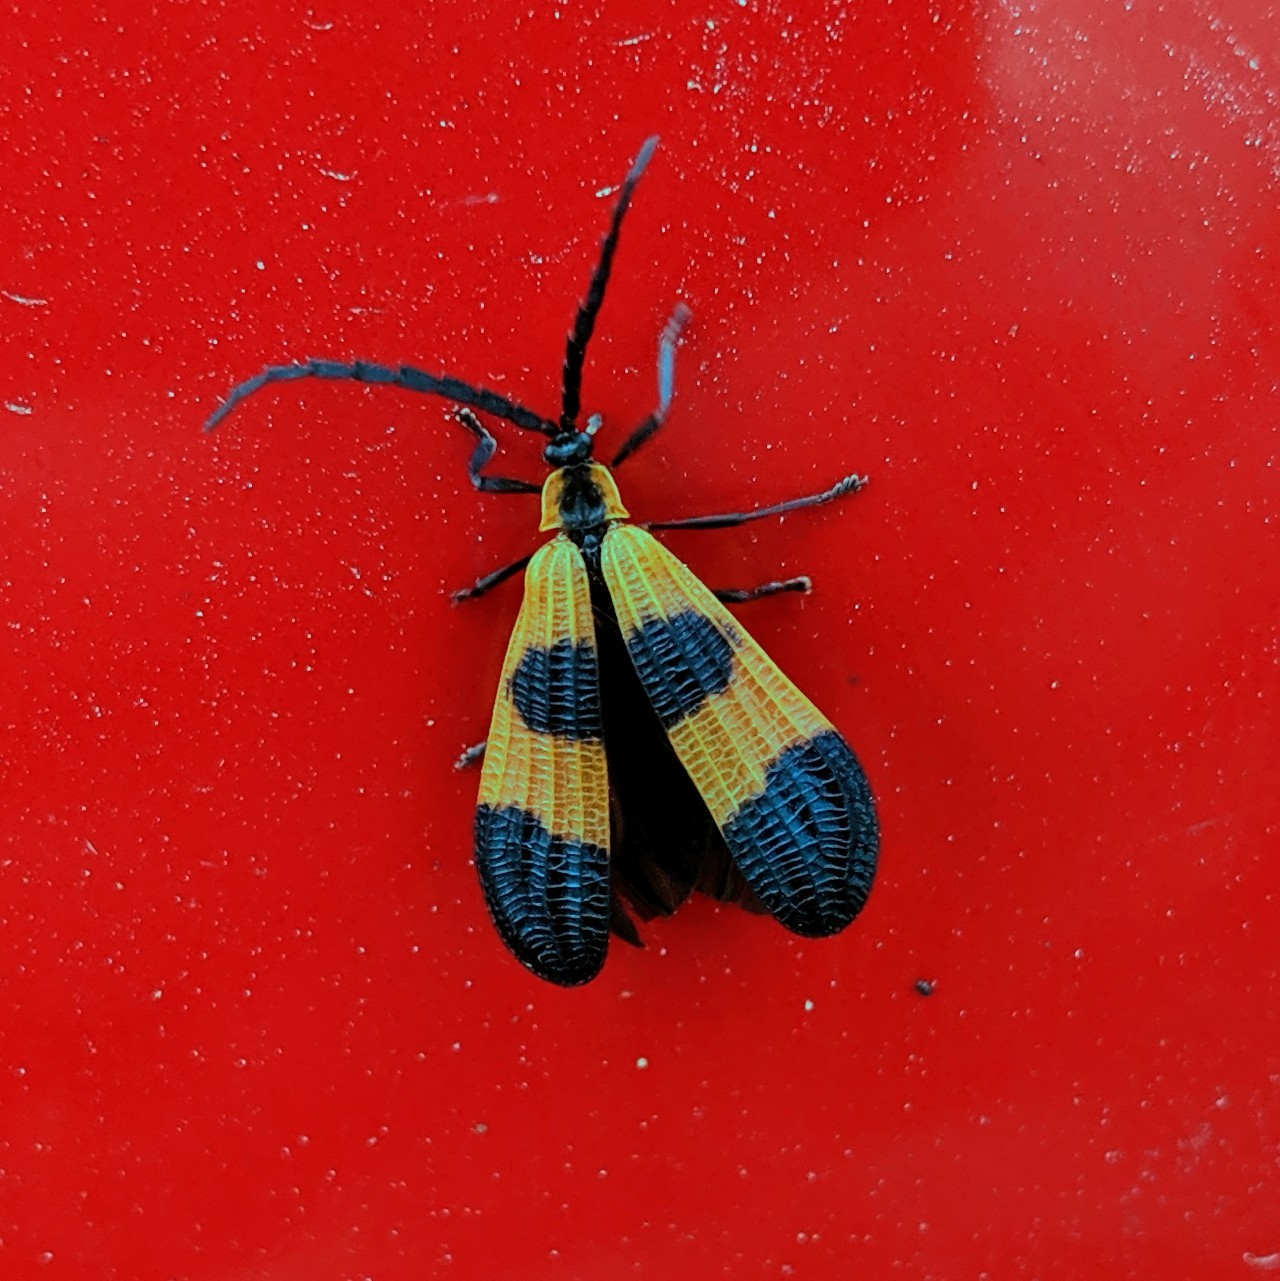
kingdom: Animalia
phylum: Arthropoda
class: Insecta
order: Coleoptera
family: Lycidae
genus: Calopteron
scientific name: Calopteron terminale
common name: End band net-winged beetle
